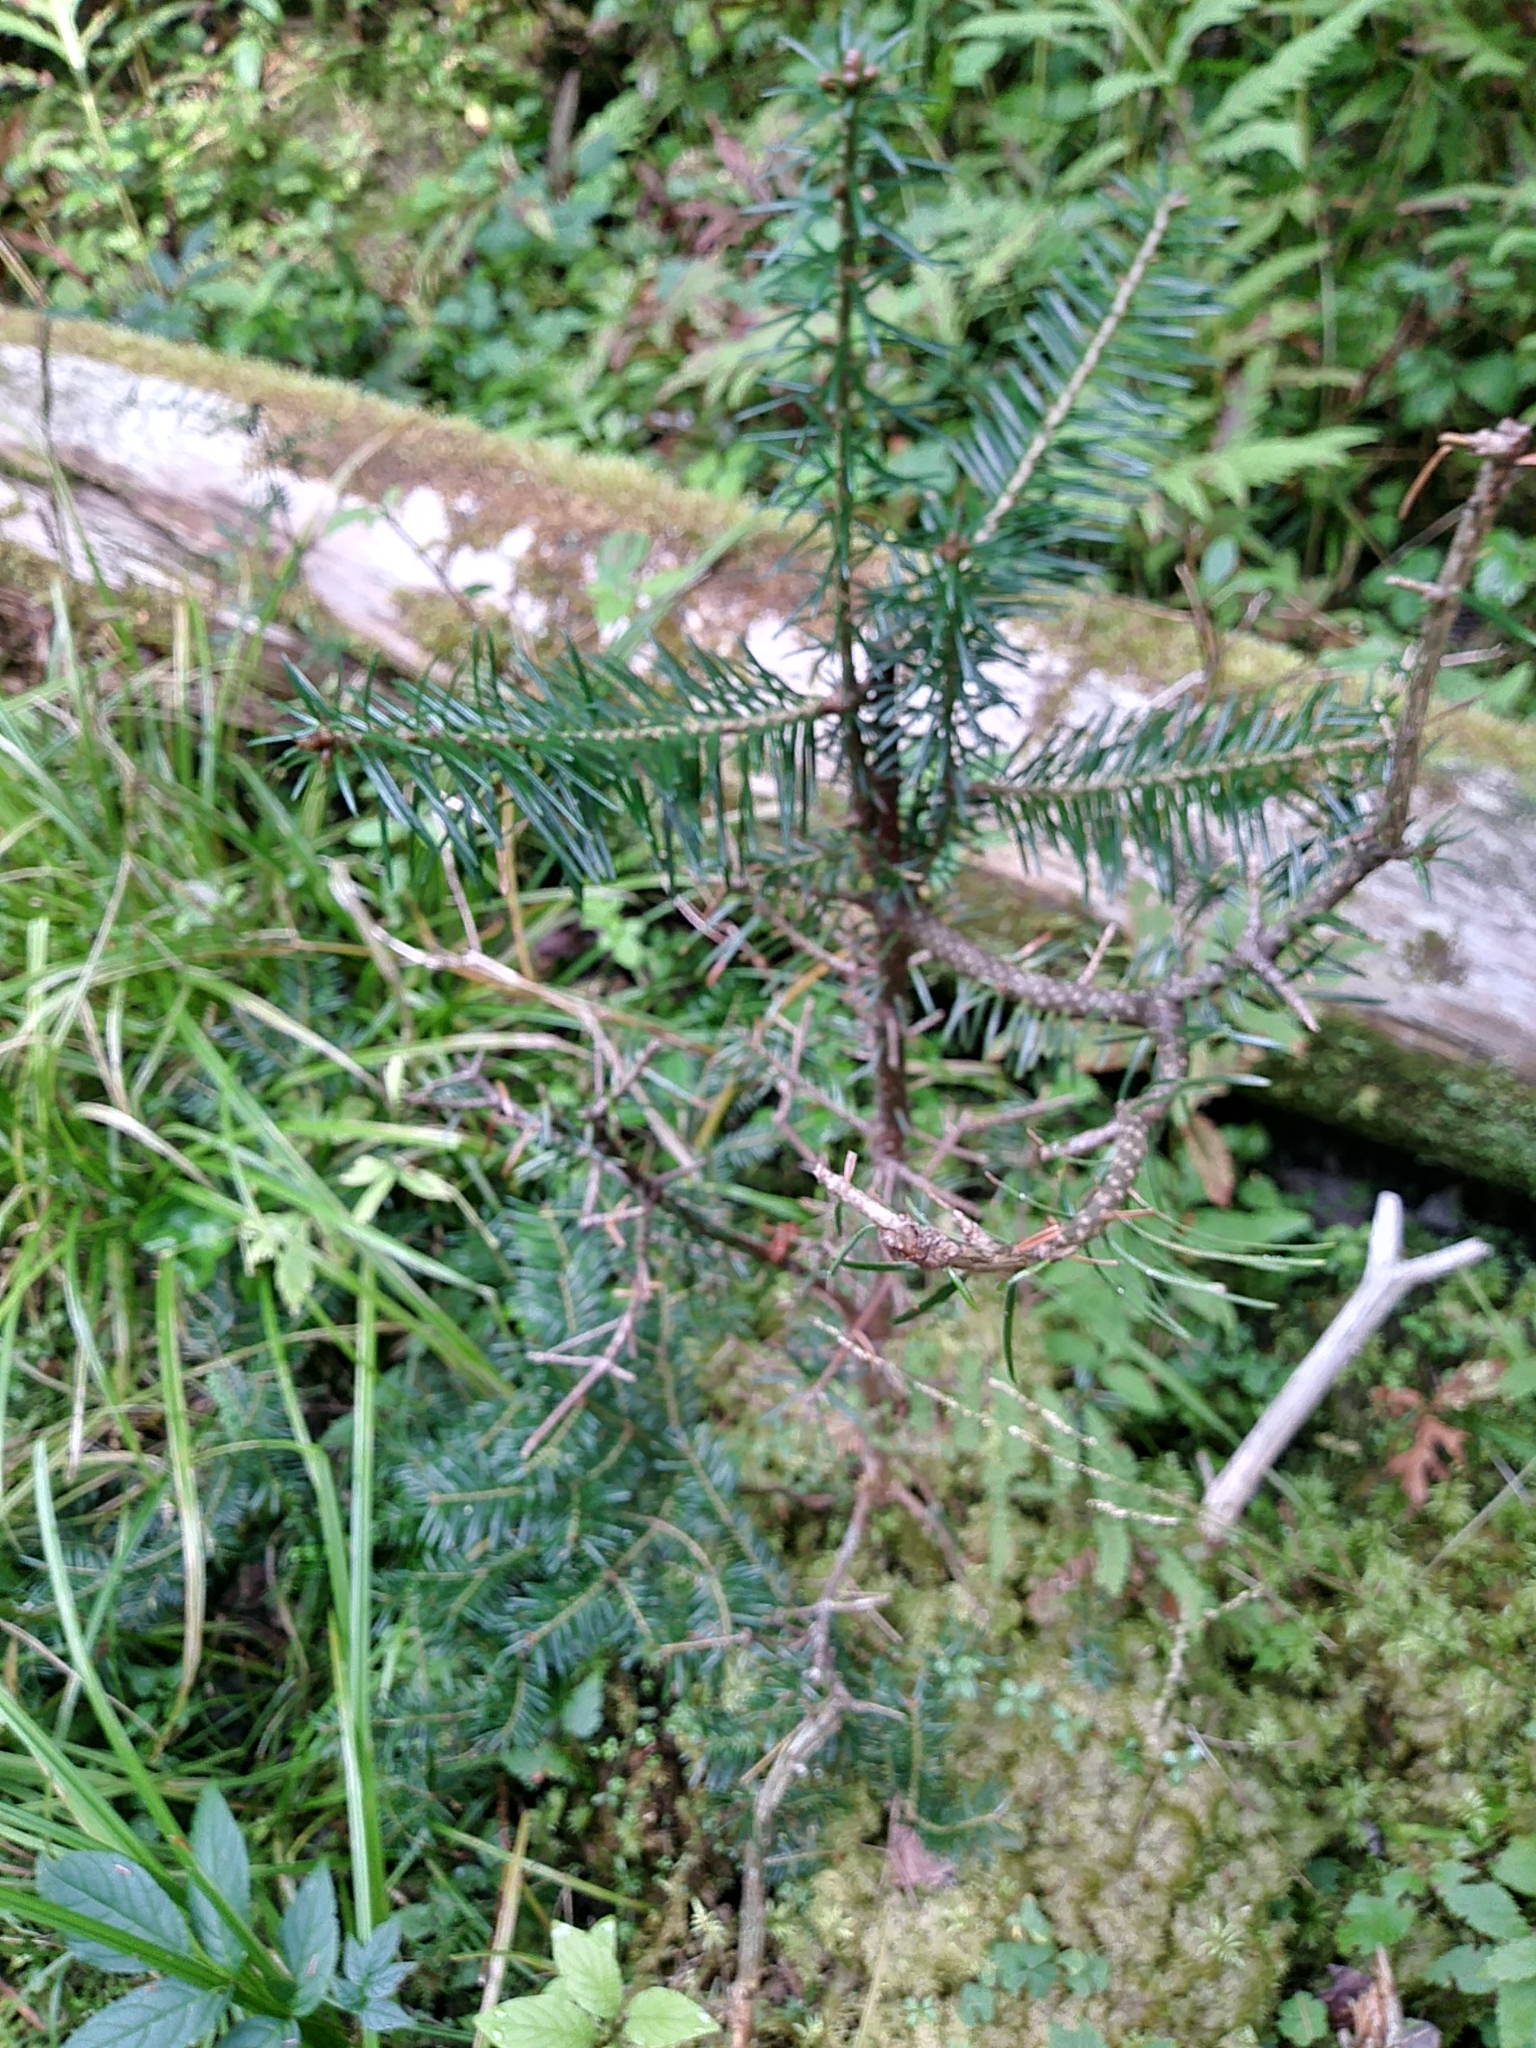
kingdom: Plantae
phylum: Tracheophyta
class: Pinopsida
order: Pinales
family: Pinaceae
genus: Abies
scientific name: Abies balsamea
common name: Balsam fir
